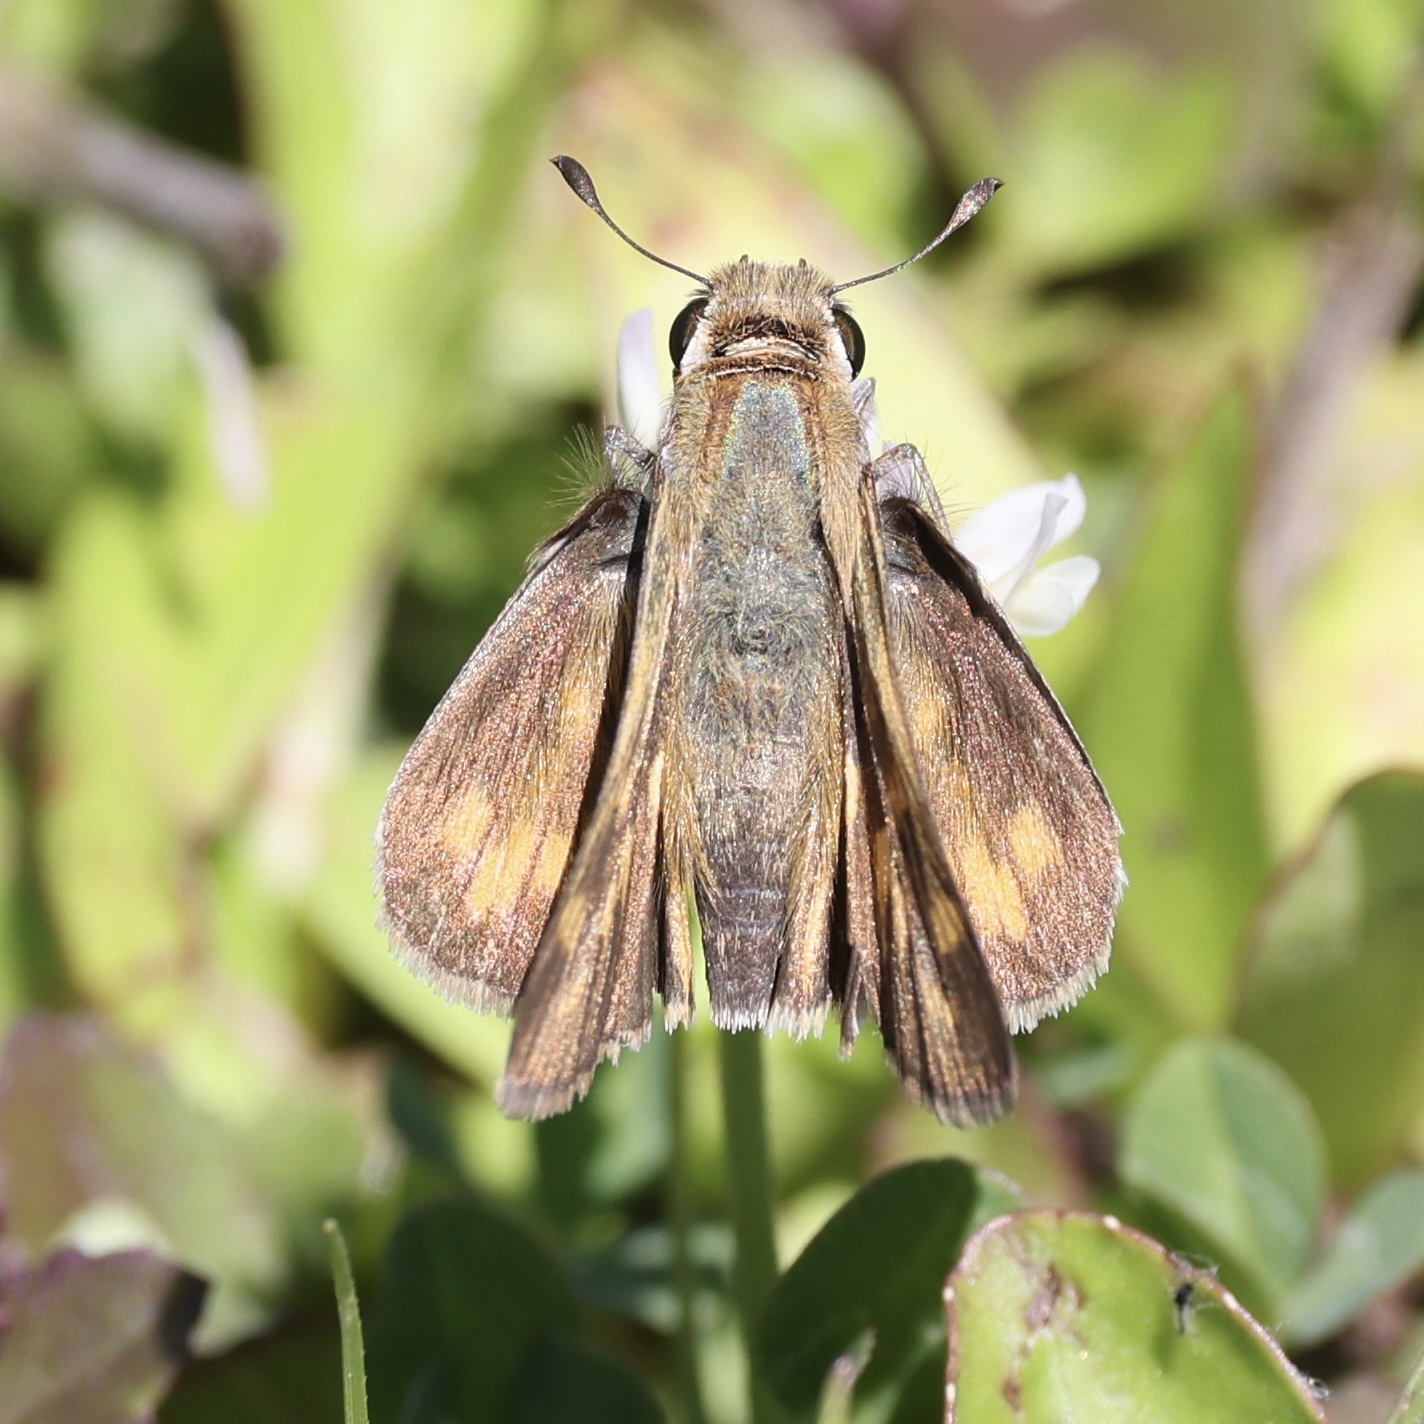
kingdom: Animalia
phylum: Arthropoda
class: Insecta
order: Lepidoptera
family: Hesperiidae
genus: Hylephila
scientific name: Hylephila phyleus
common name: Fiery skipper
